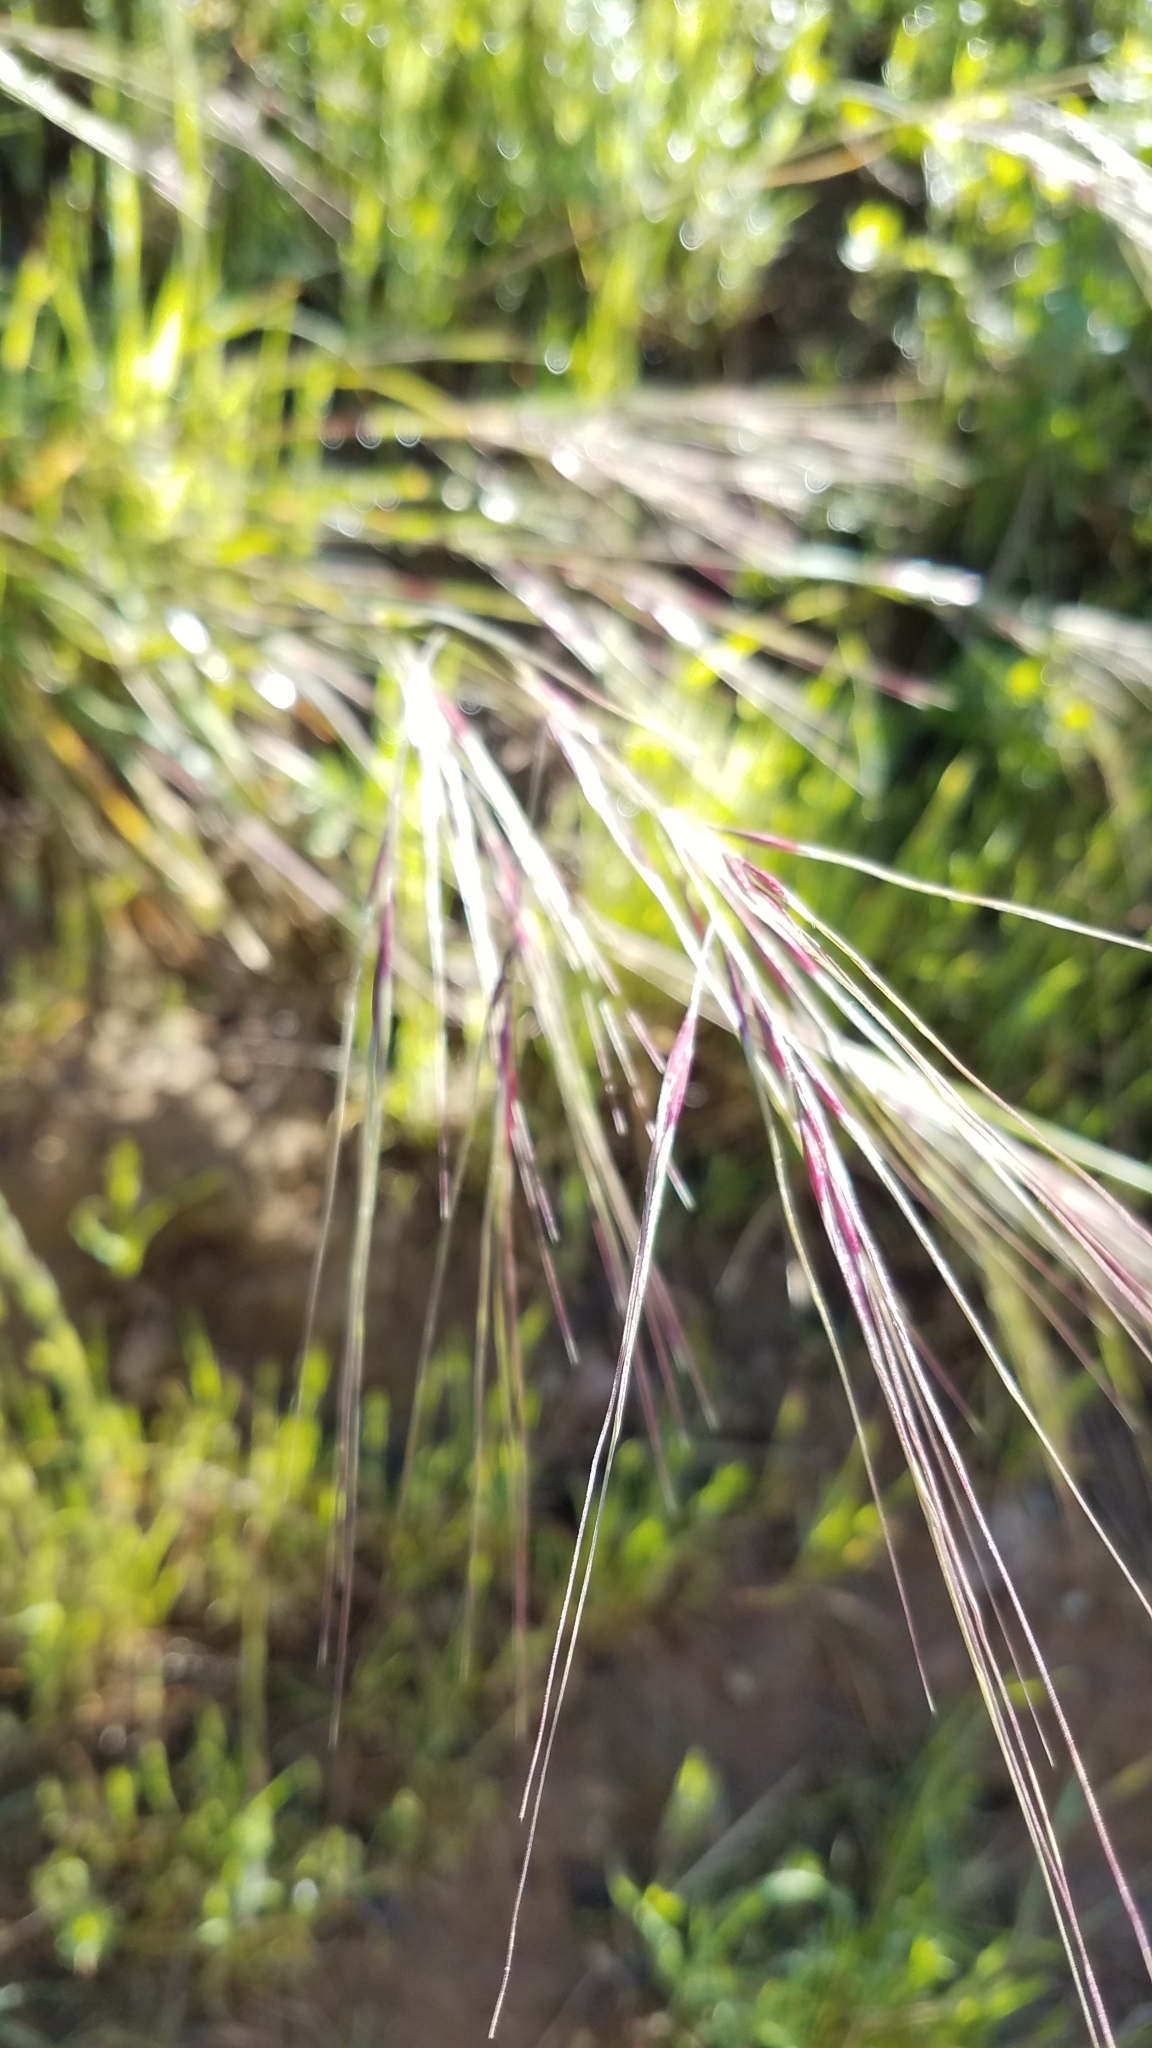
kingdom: Plantae
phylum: Tracheophyta
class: Liliopsida
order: Poales
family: Poaceae
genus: Nassella
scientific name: Nassella pulchra
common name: Purple needlegrass
